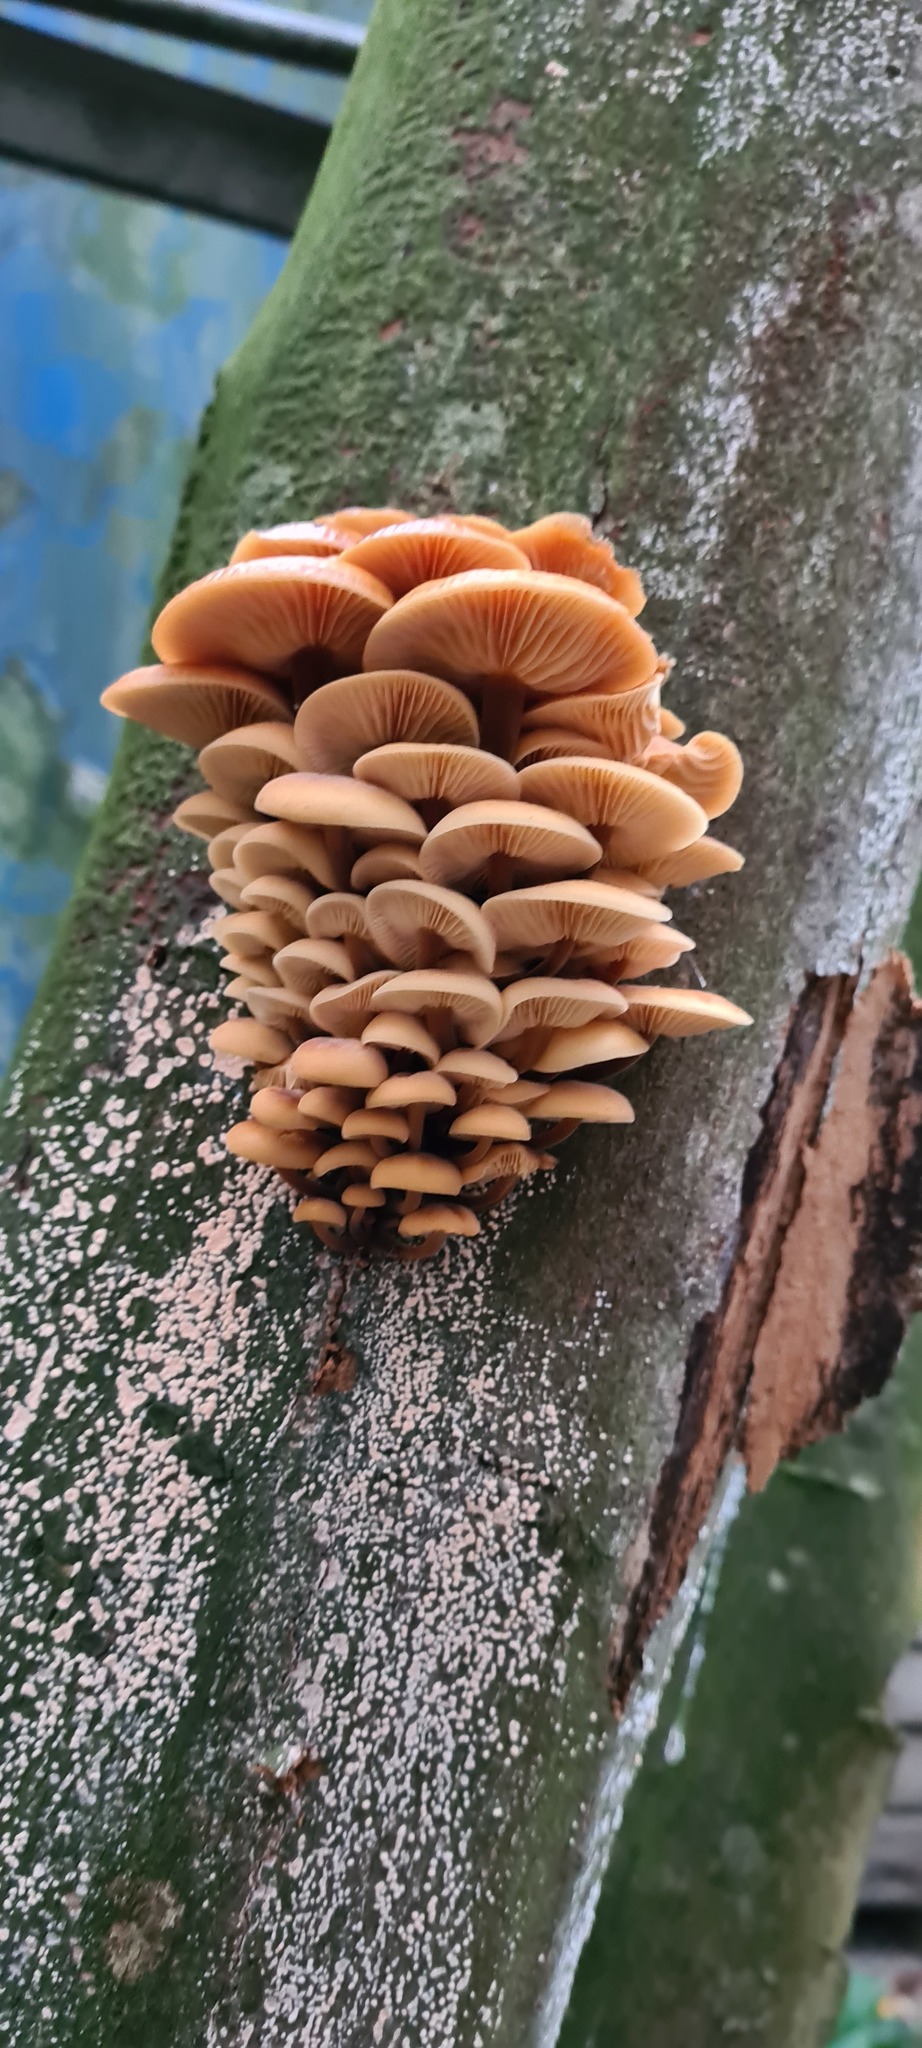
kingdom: Fungi
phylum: Basidiomycota
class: Agaricomycetes
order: Agaricales
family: Physalacriaceae
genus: Flammulina
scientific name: Flammulina
